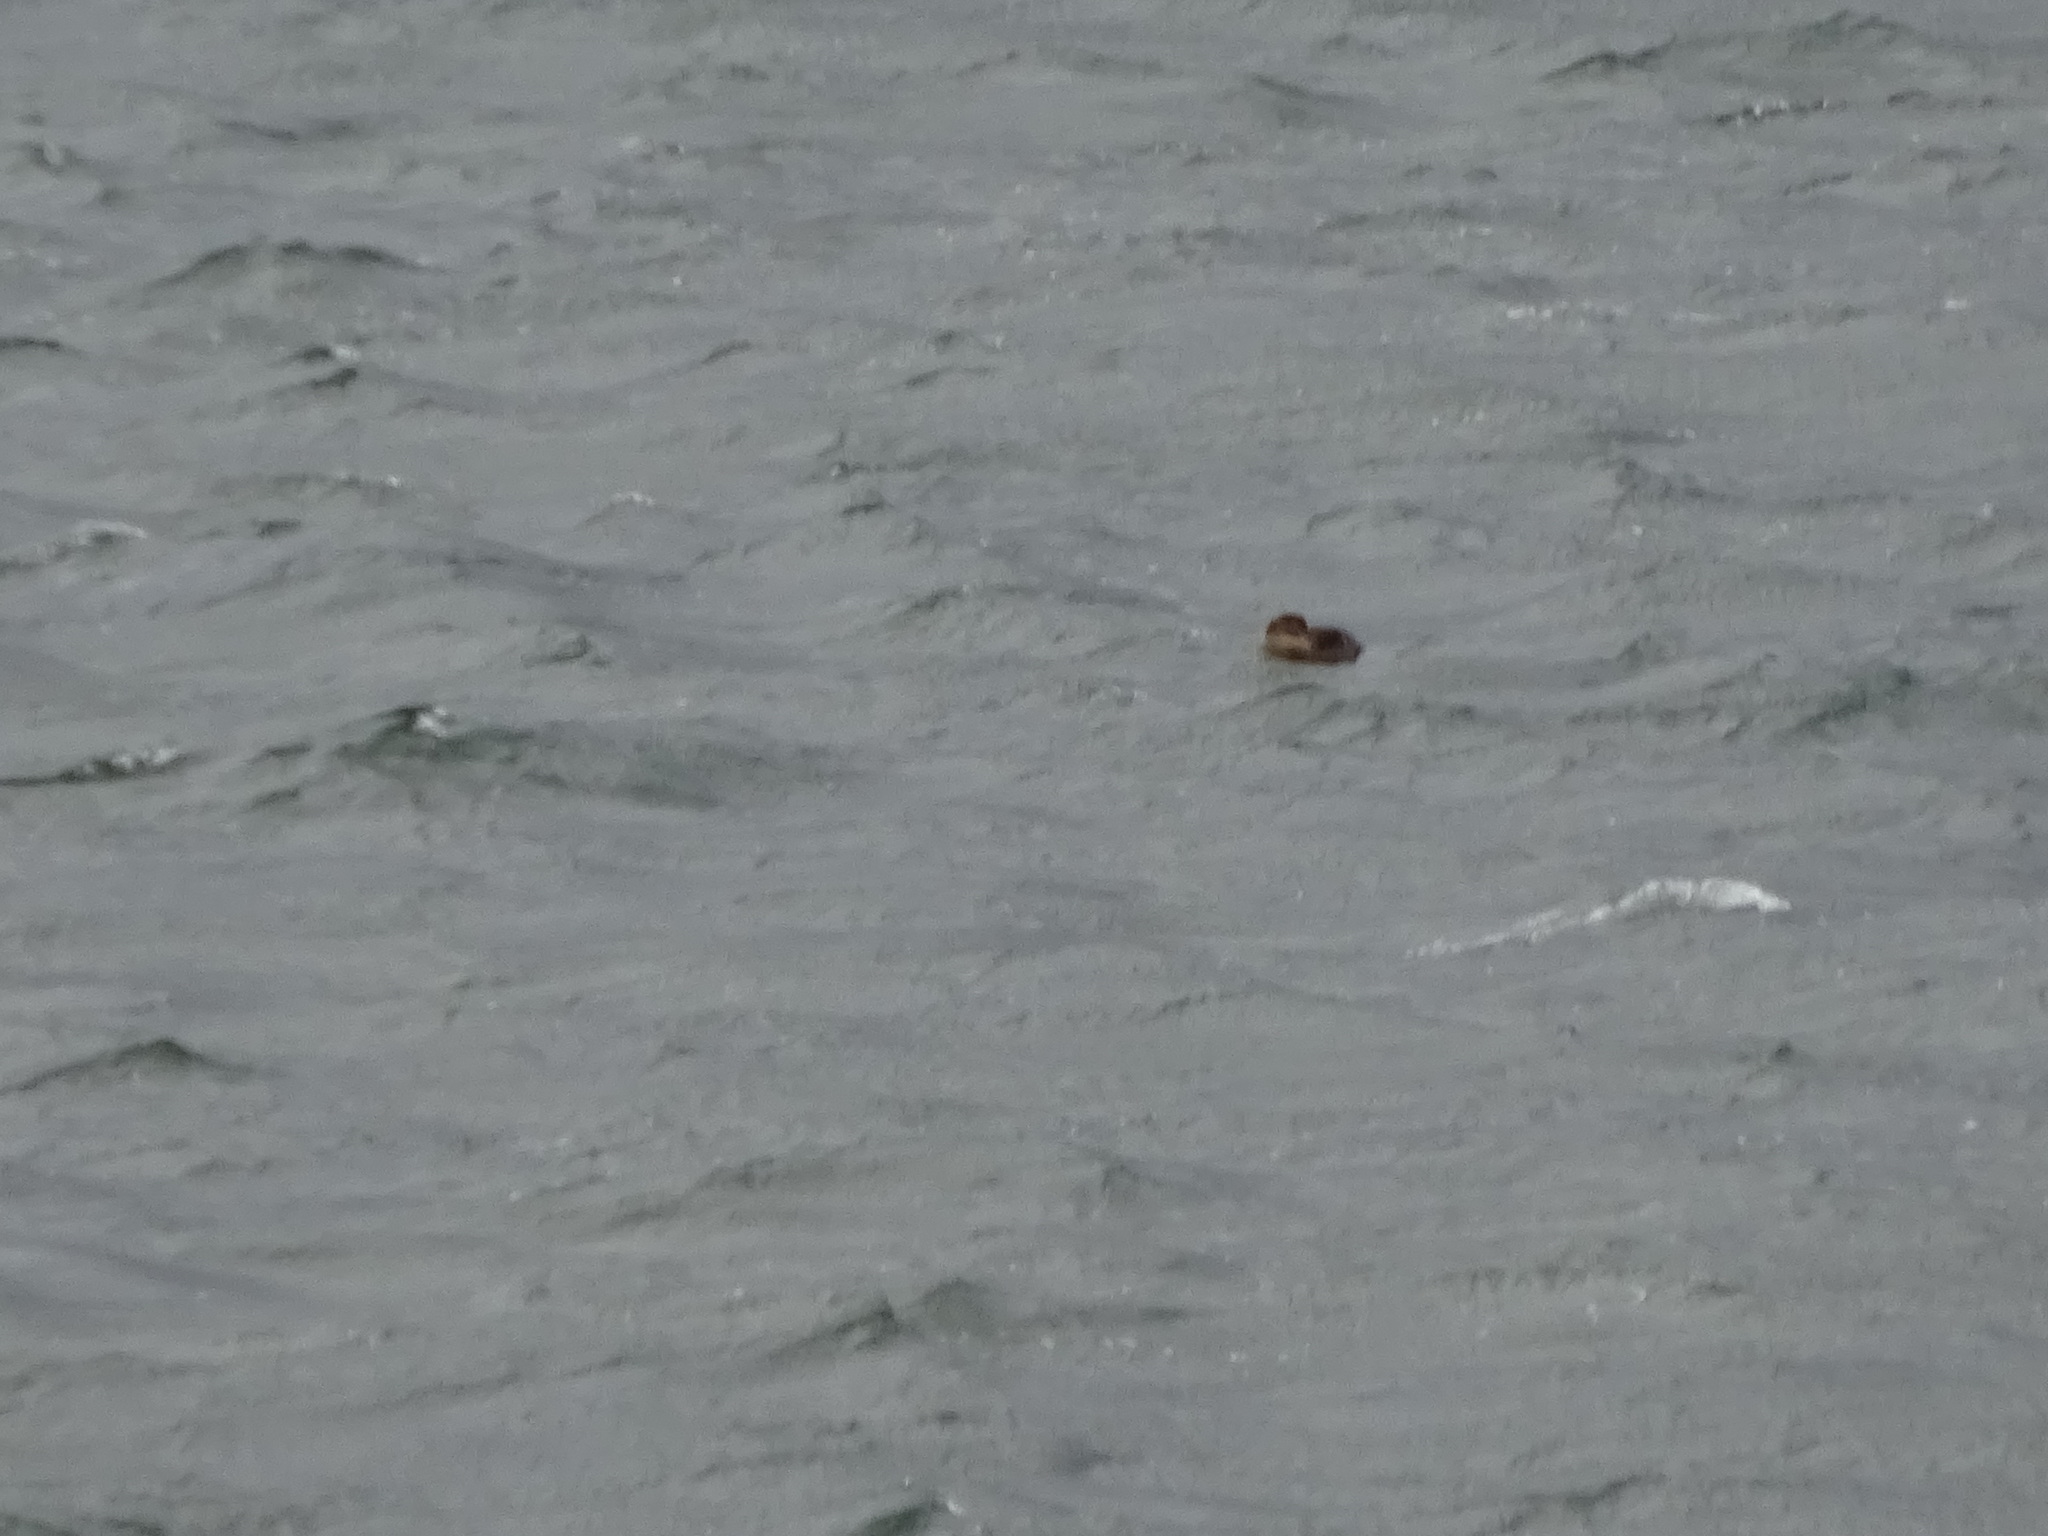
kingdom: Animalia
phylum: Chordata
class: Aves
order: Anseriformes
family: Anatidae
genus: Somateria
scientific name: Somateria mollissima
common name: Common eider
